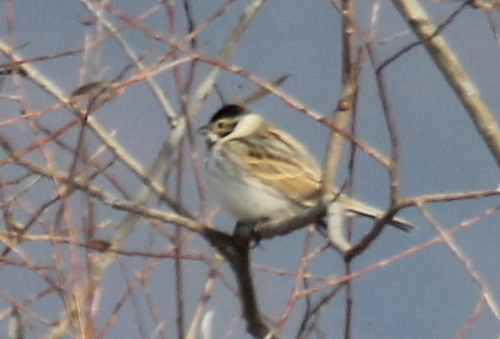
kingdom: Animalia
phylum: Chordata
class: Aves
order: Passeriformes
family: Emberizidae
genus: Emberiza
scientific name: Emberiza schoeniclus
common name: Reed bunting
